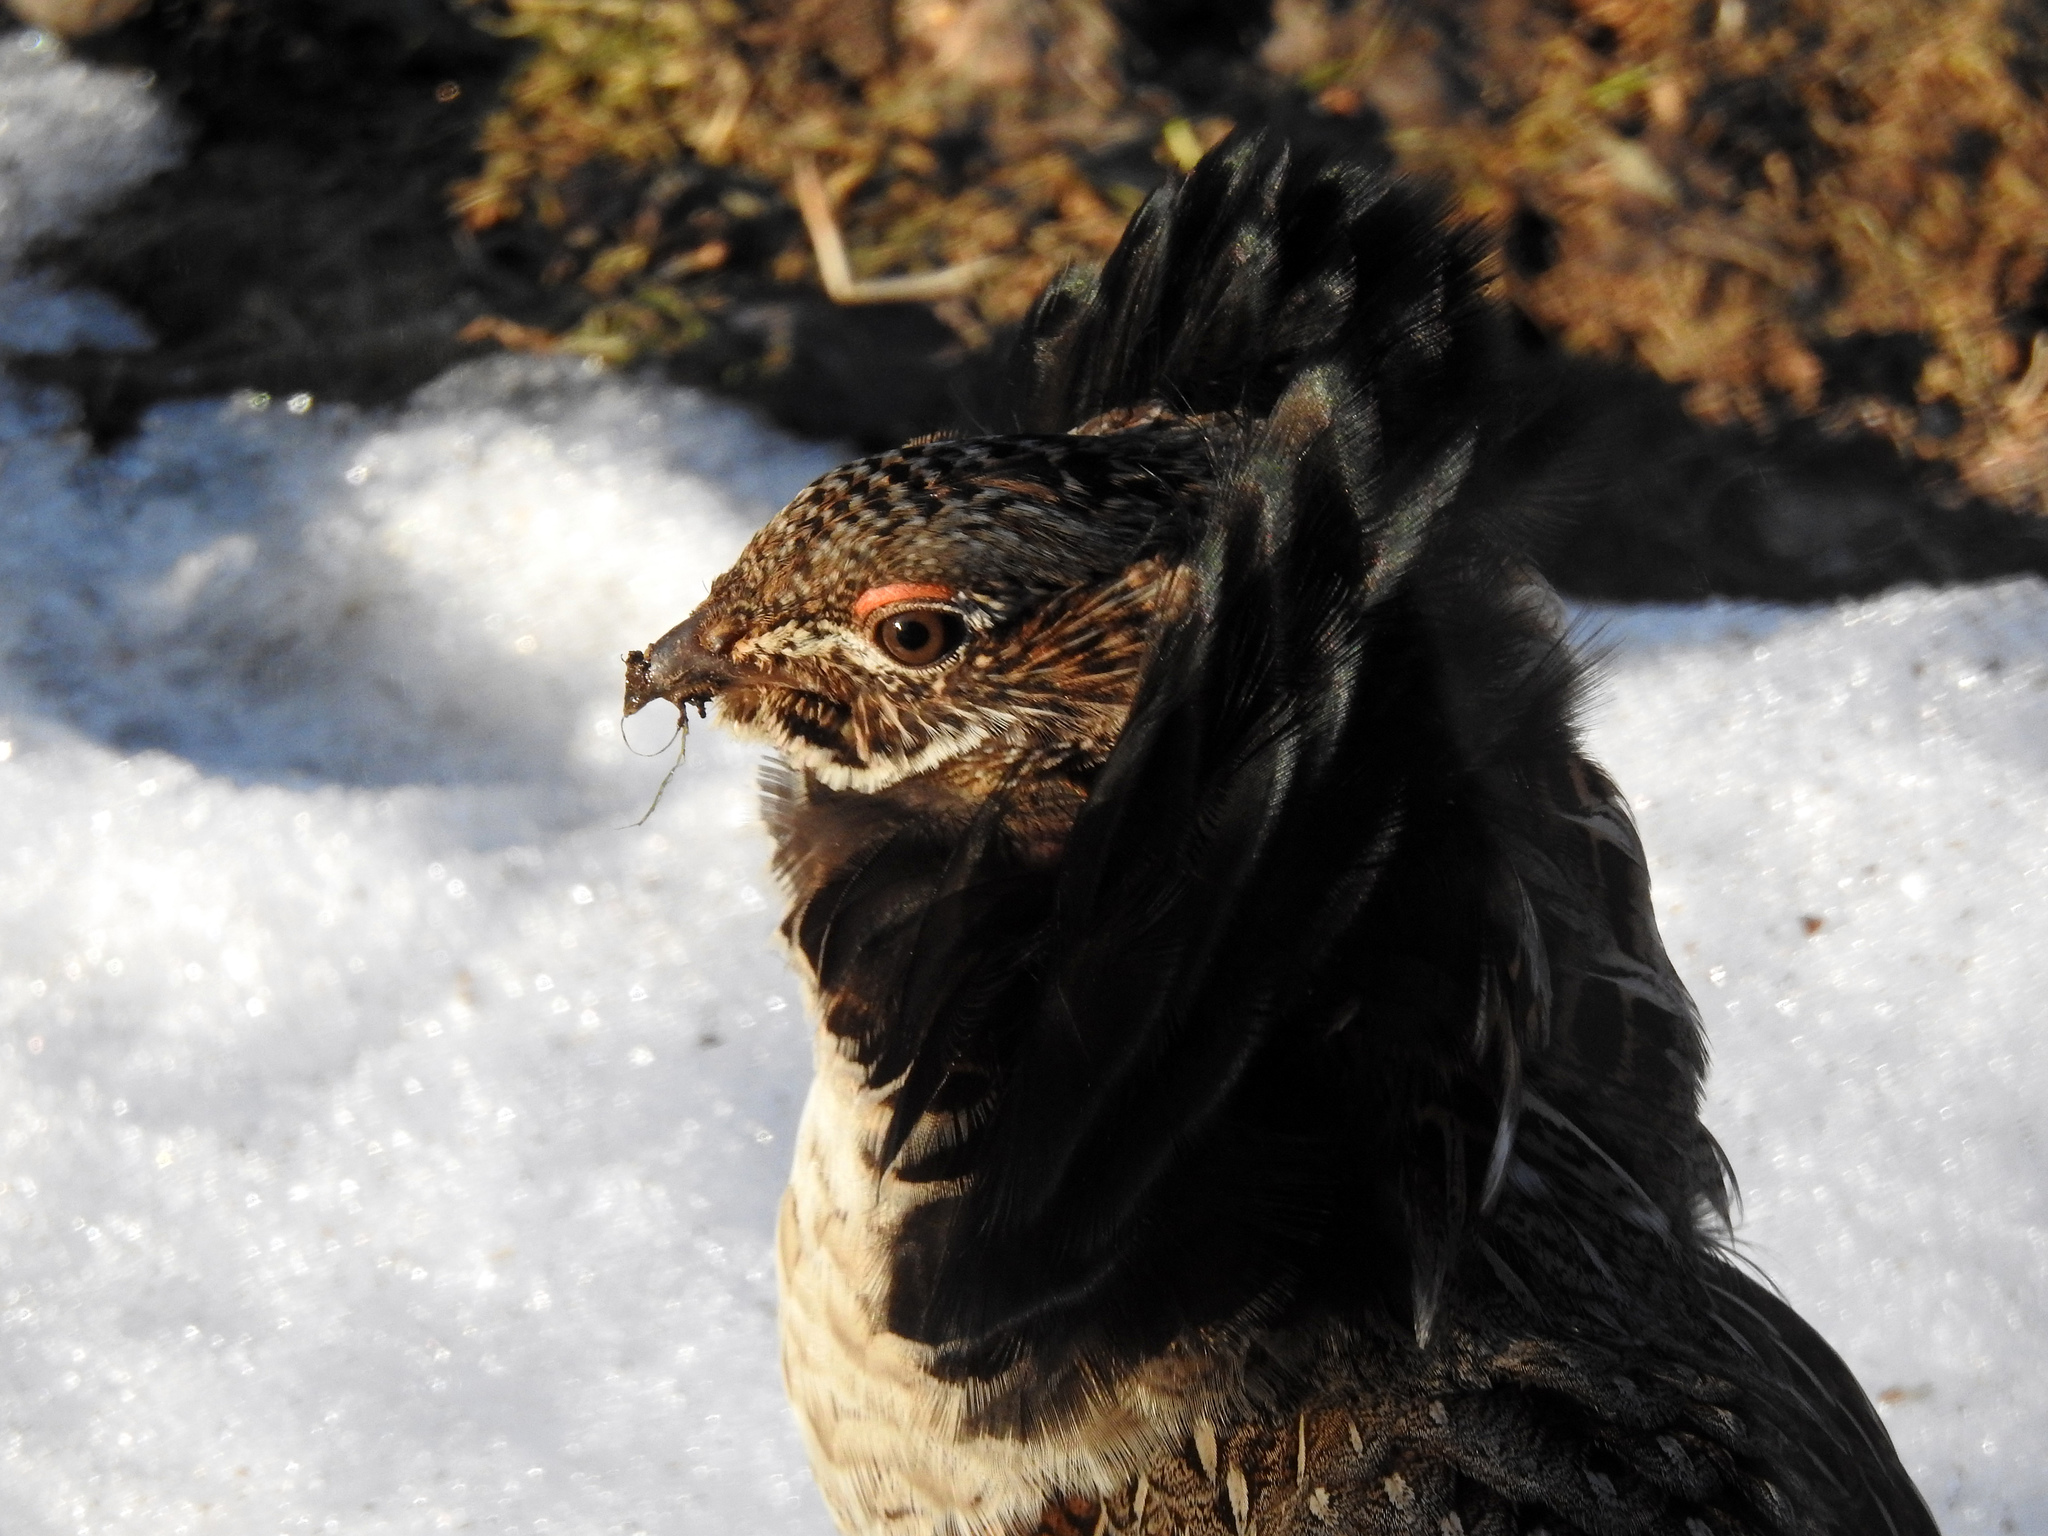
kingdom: Animalia
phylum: Chordata
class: Aves
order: Galliformes
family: Phasianidae
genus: Bonasa
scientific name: Bonasa umbellus
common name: Ruffed grouse
